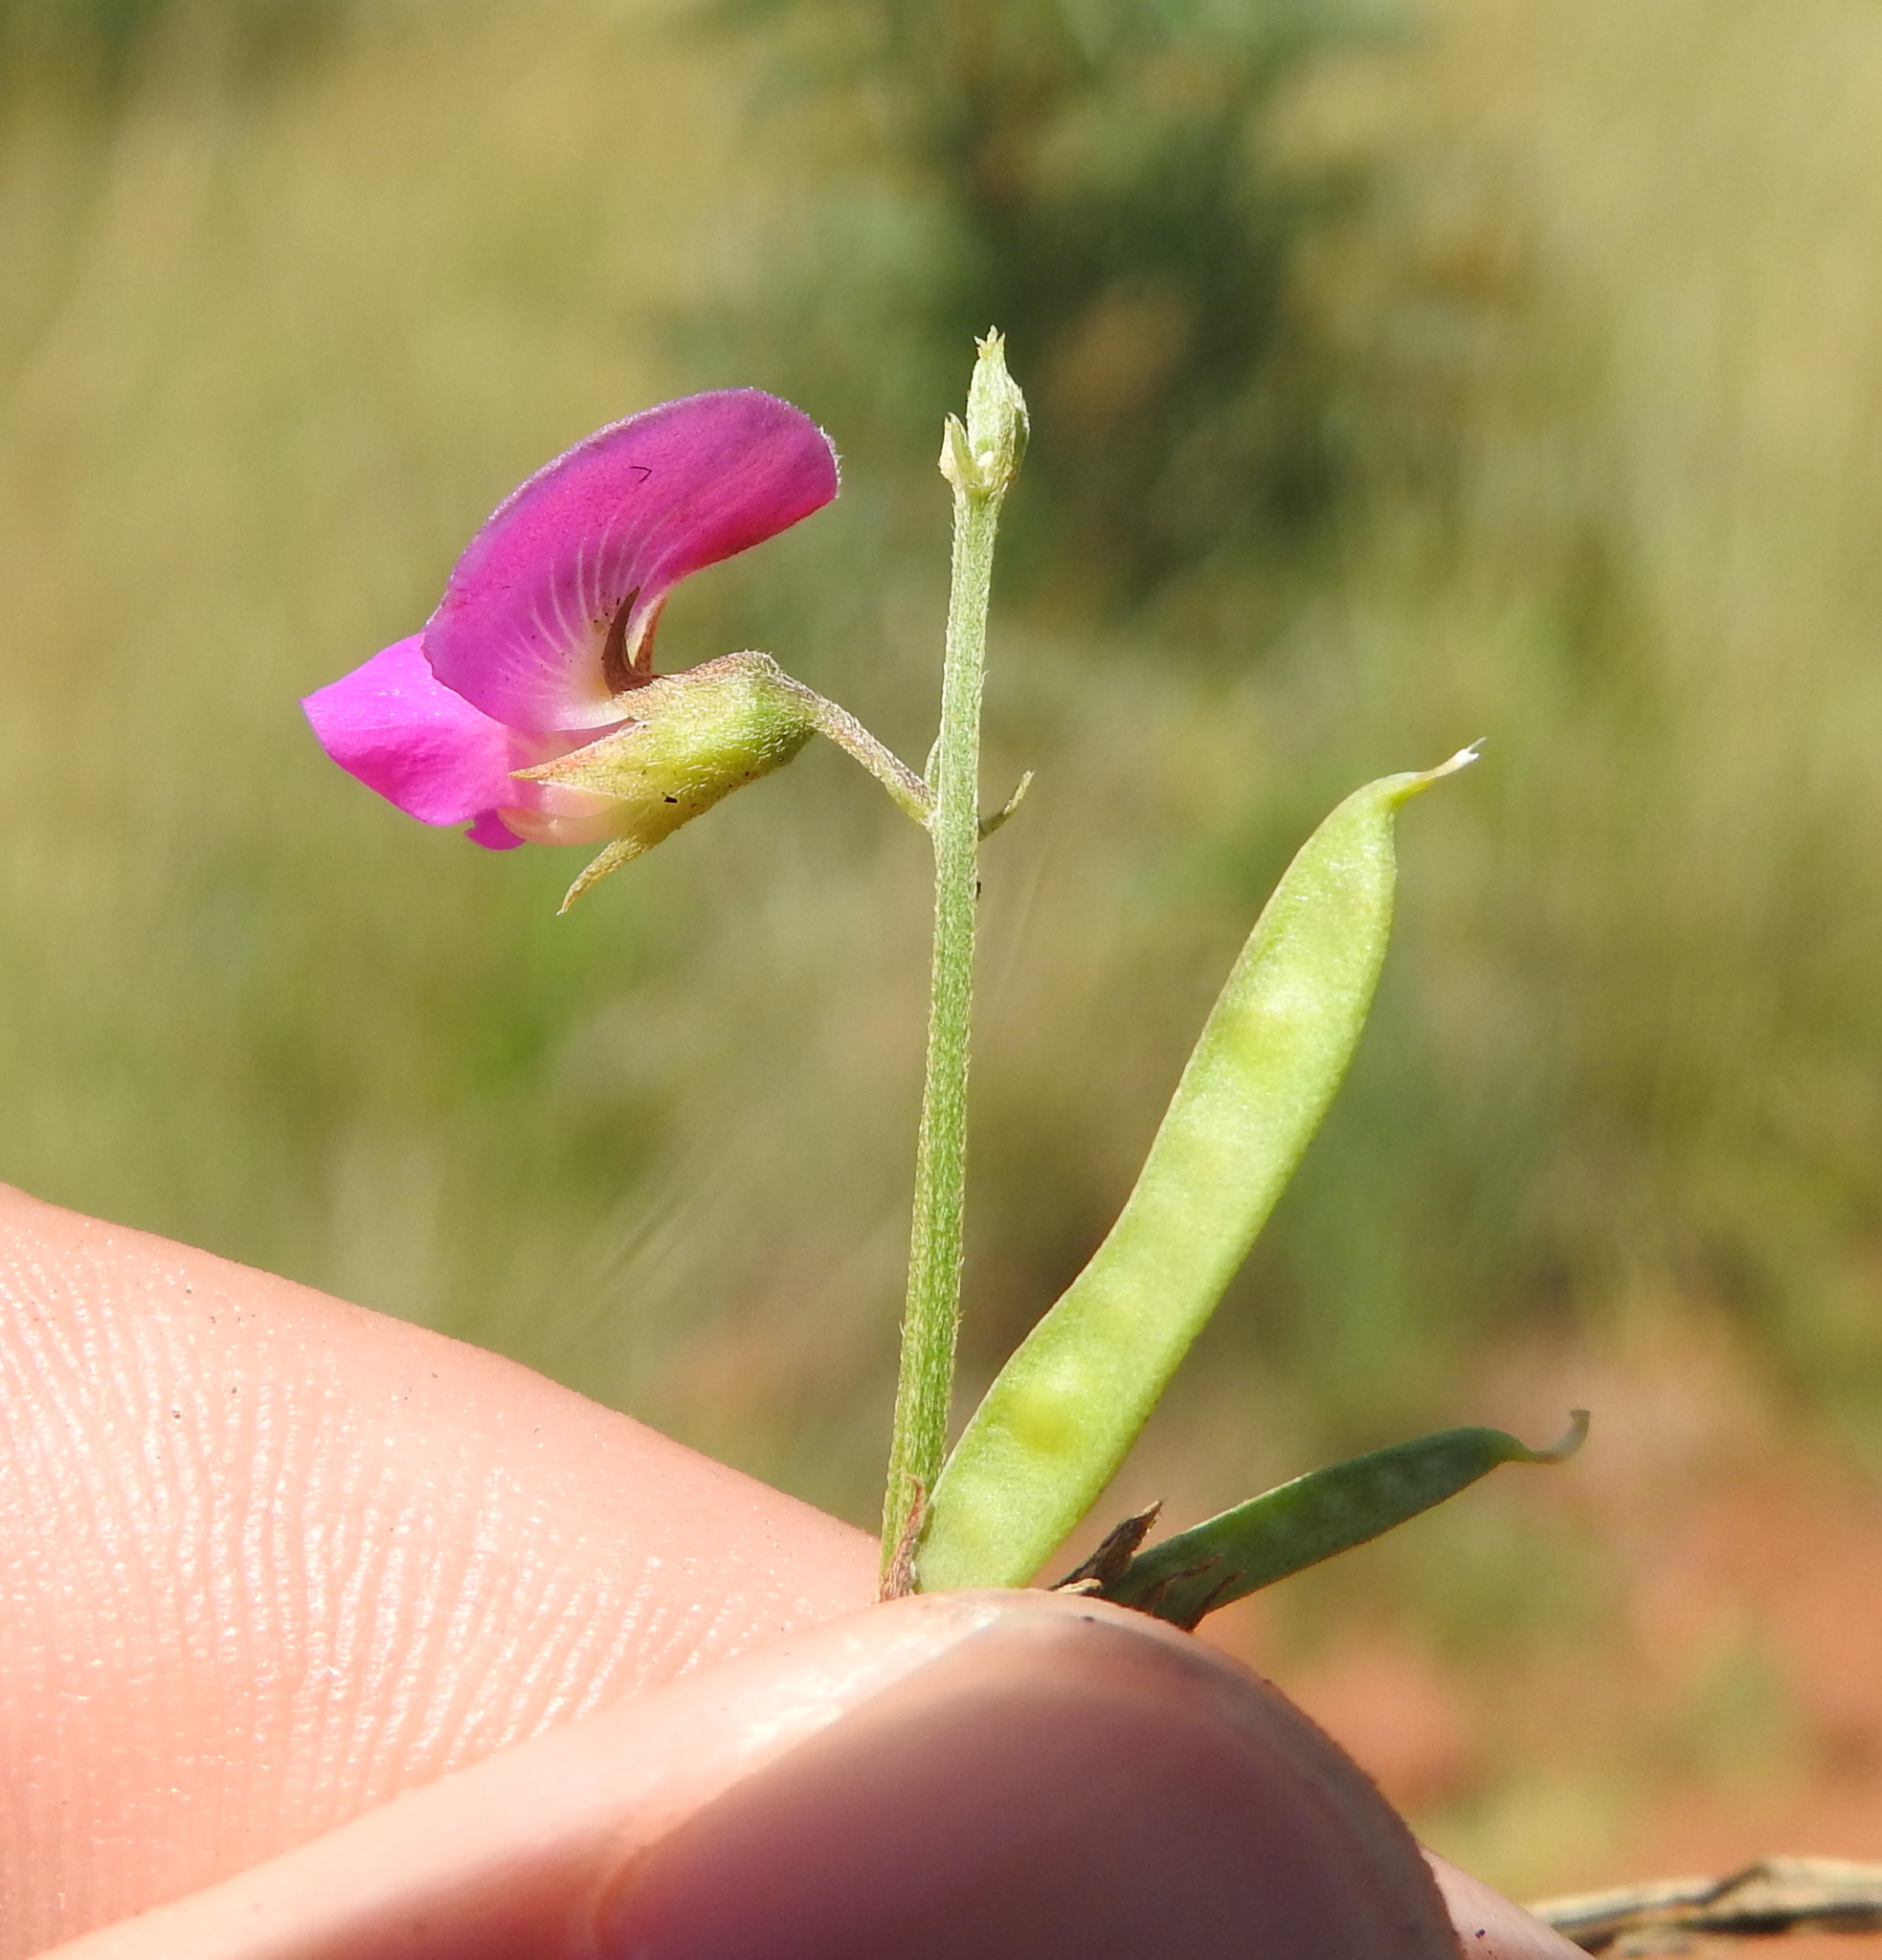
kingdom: Plantae
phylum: Tracheophyta
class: Magnoliopsida
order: Fabales
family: Fabaceae
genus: Tephrosia
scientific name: Tephrosia capensis
